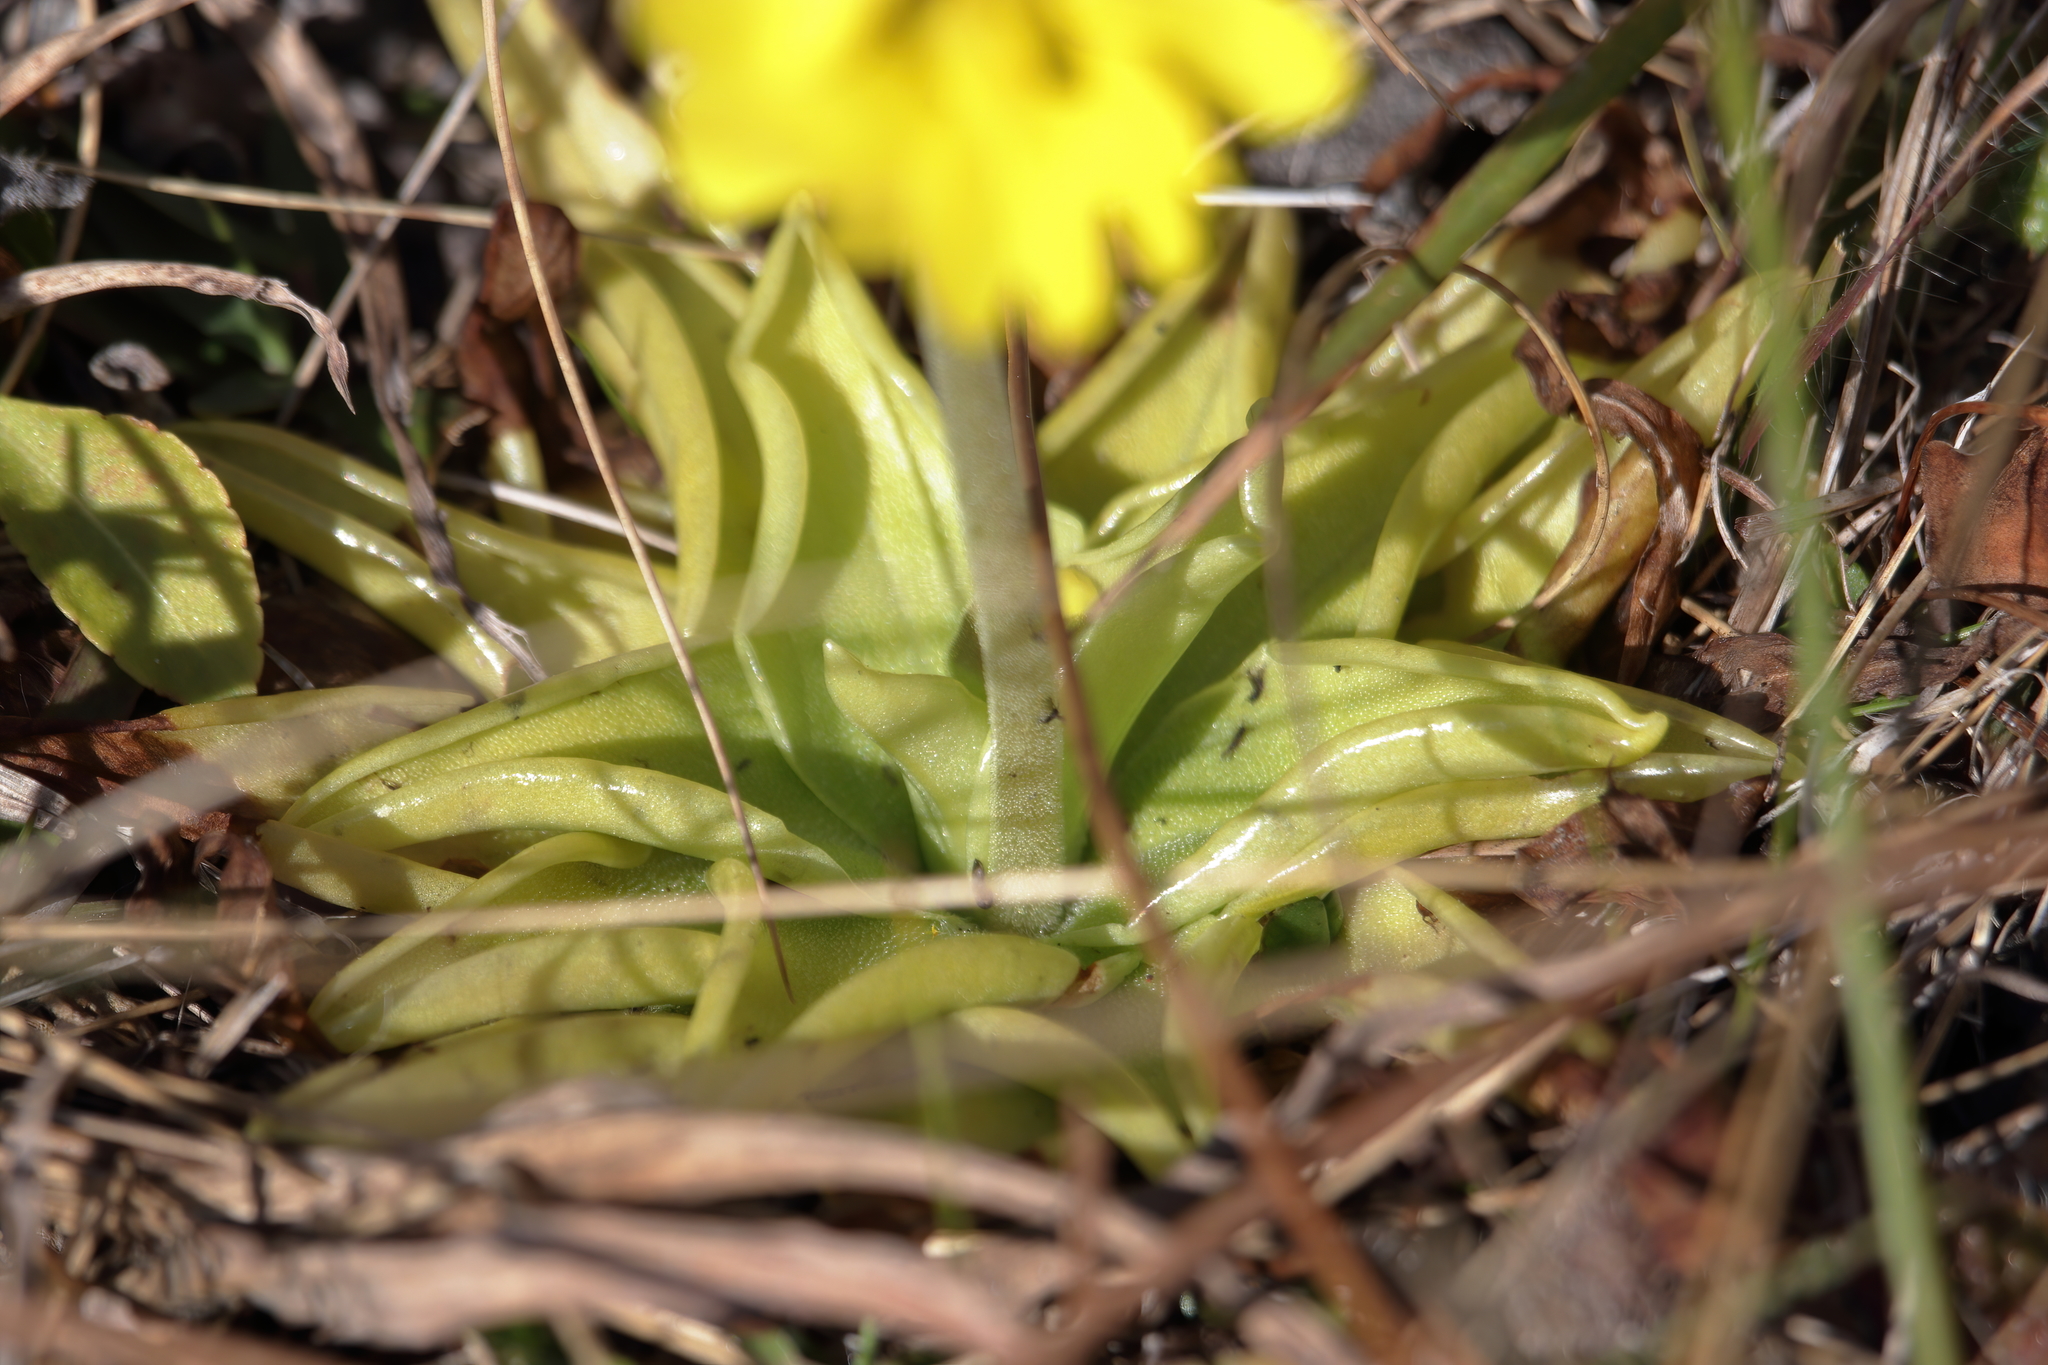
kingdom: Plantae
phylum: Tracheophyta
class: Magnoliopsida
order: Lamiales
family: Lentibulariaceae
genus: Pinguicula
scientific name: Pinguicula lutea
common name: Yellow butterwort
